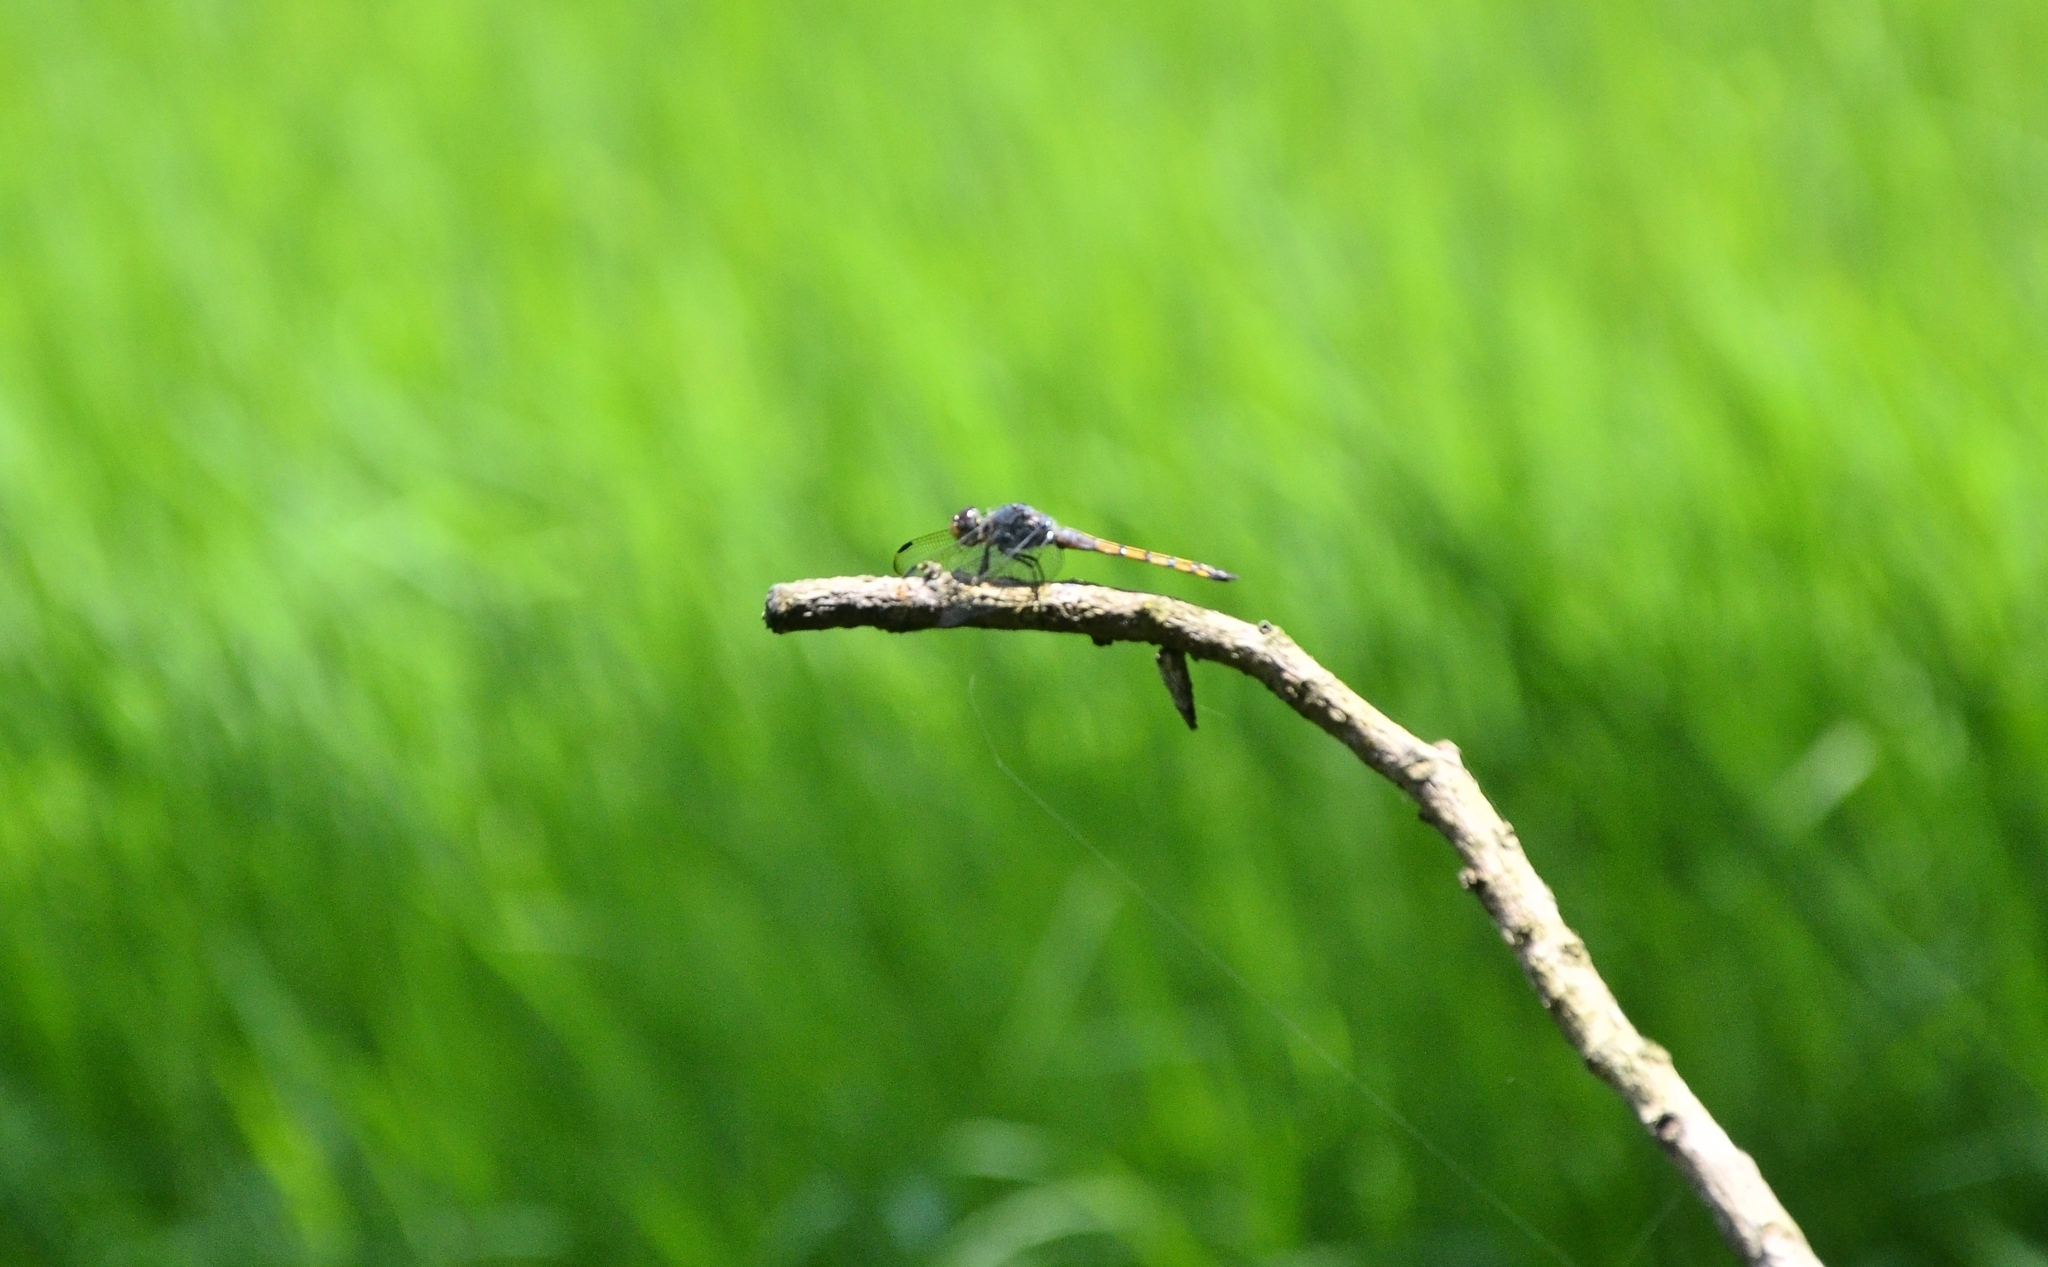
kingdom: Animalia
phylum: Arthropoda
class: Insecta
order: Odonata
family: Libellulidae
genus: Potamarcha
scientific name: Potamarcha congener
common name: Blue chaser
